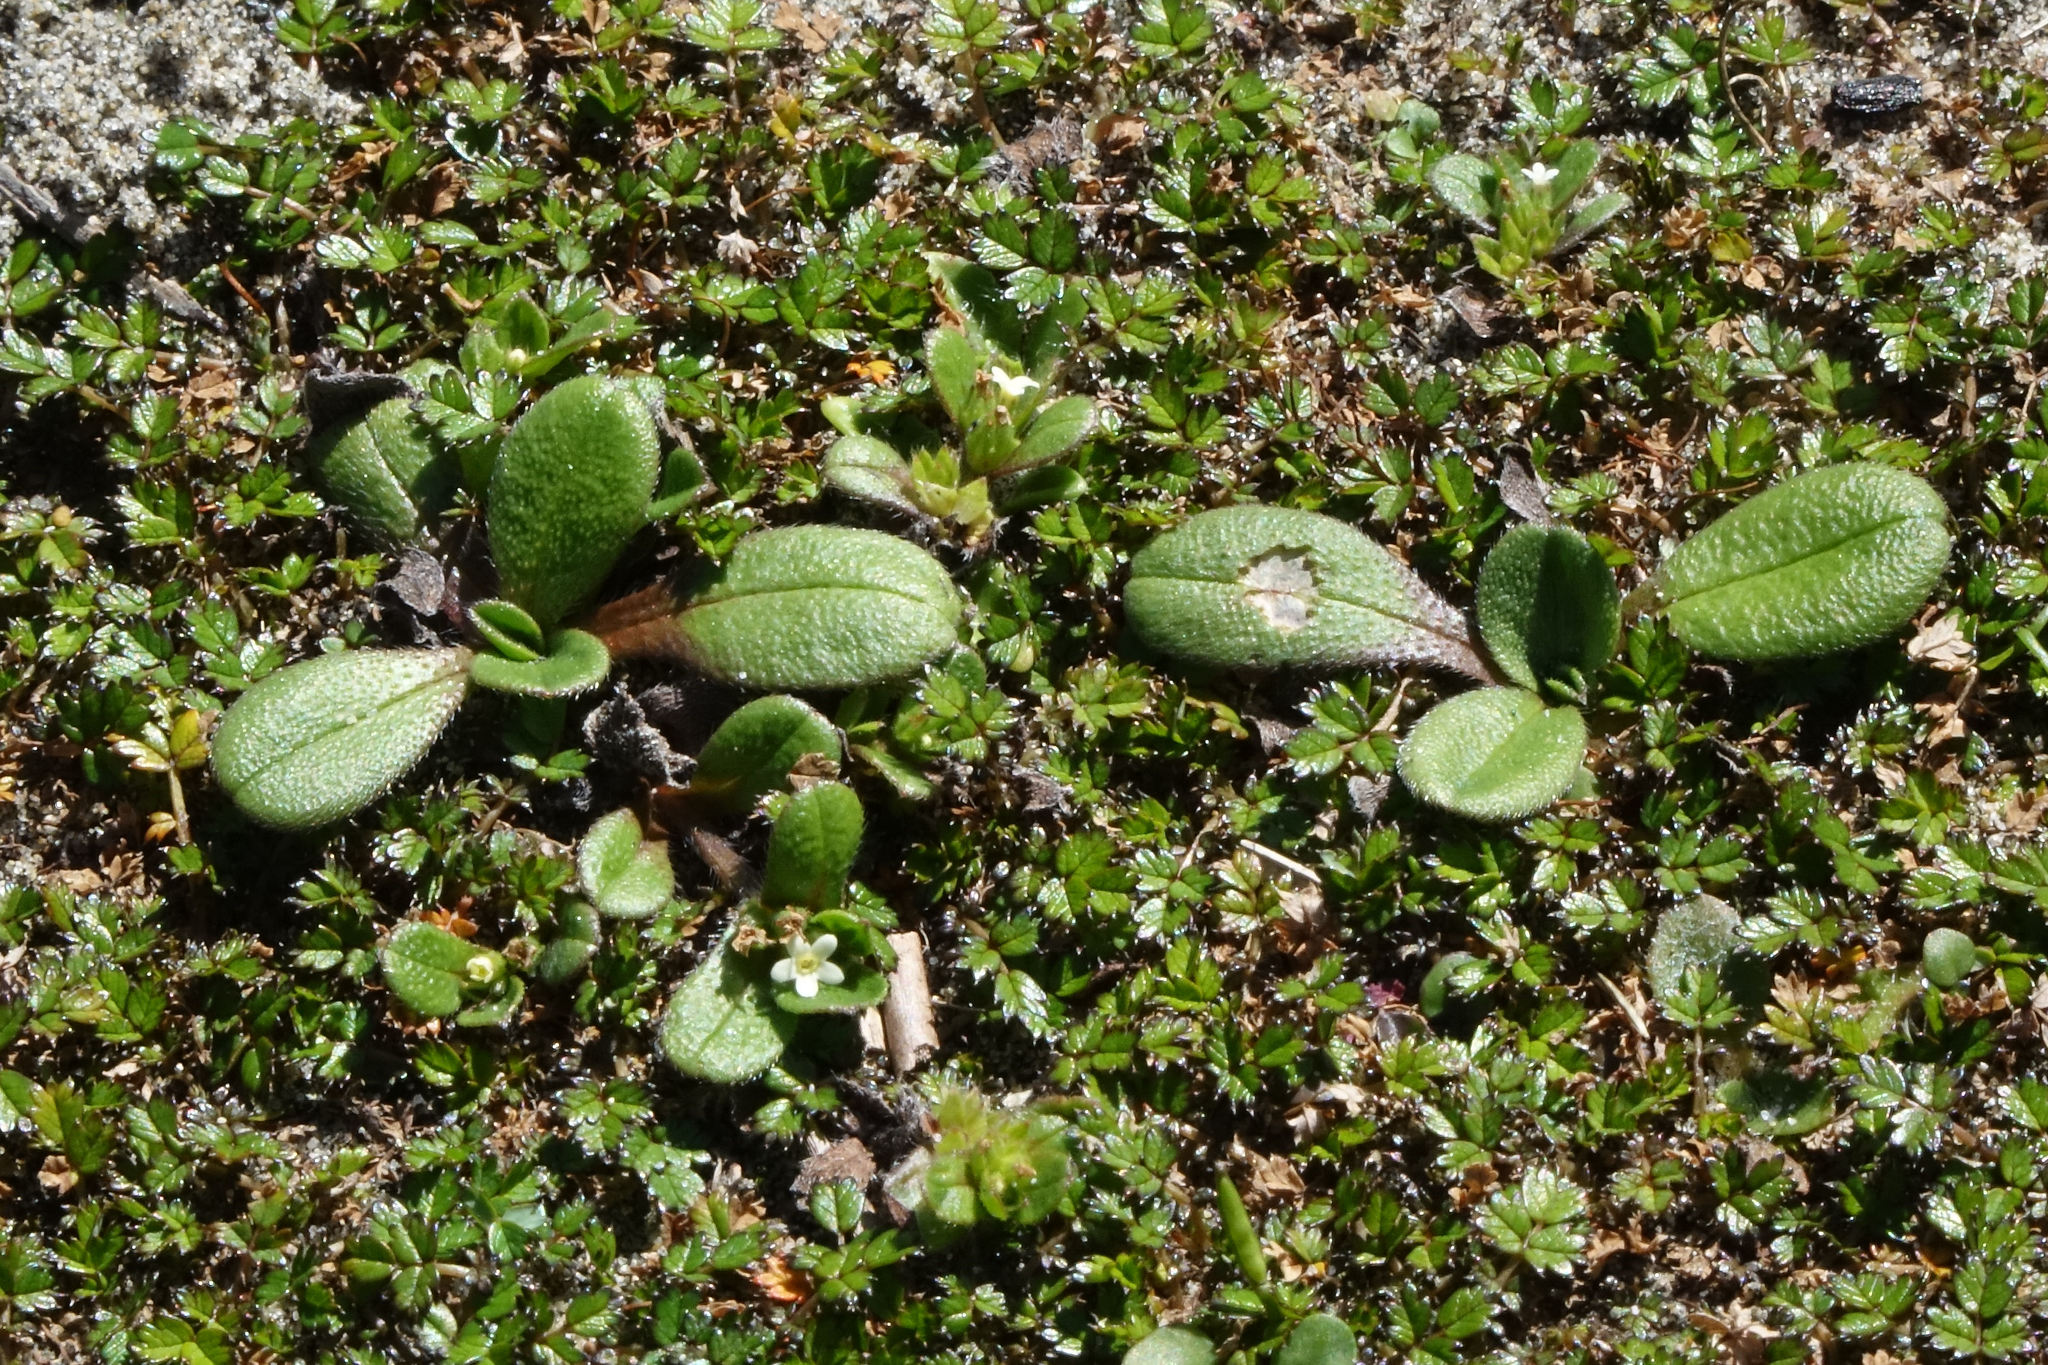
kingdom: Plantae
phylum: Tracheophyta
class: Magnoliopsida
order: Boraginales
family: Boraginaceae
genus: Myosotis
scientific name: Myosotis antarctica
